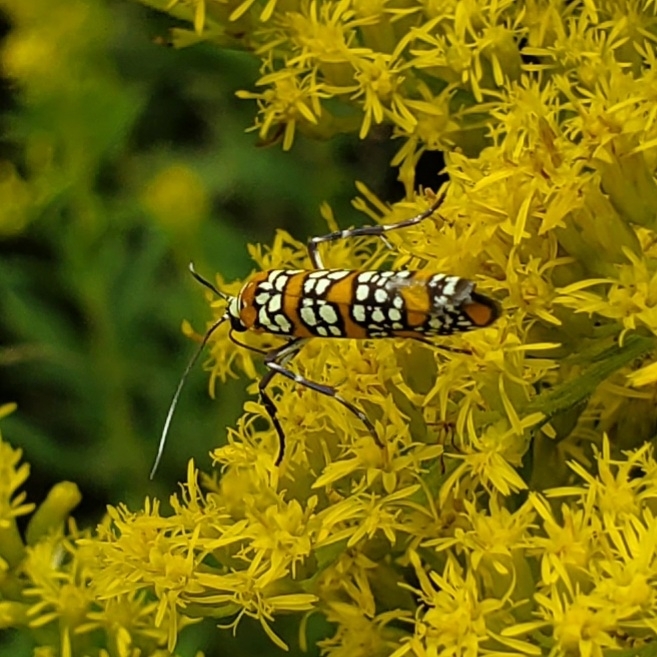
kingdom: Animalia
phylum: Arthropoda
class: Insecta
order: Lepidoptera
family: Attevidae
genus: Atteva
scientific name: Atteva punctella
